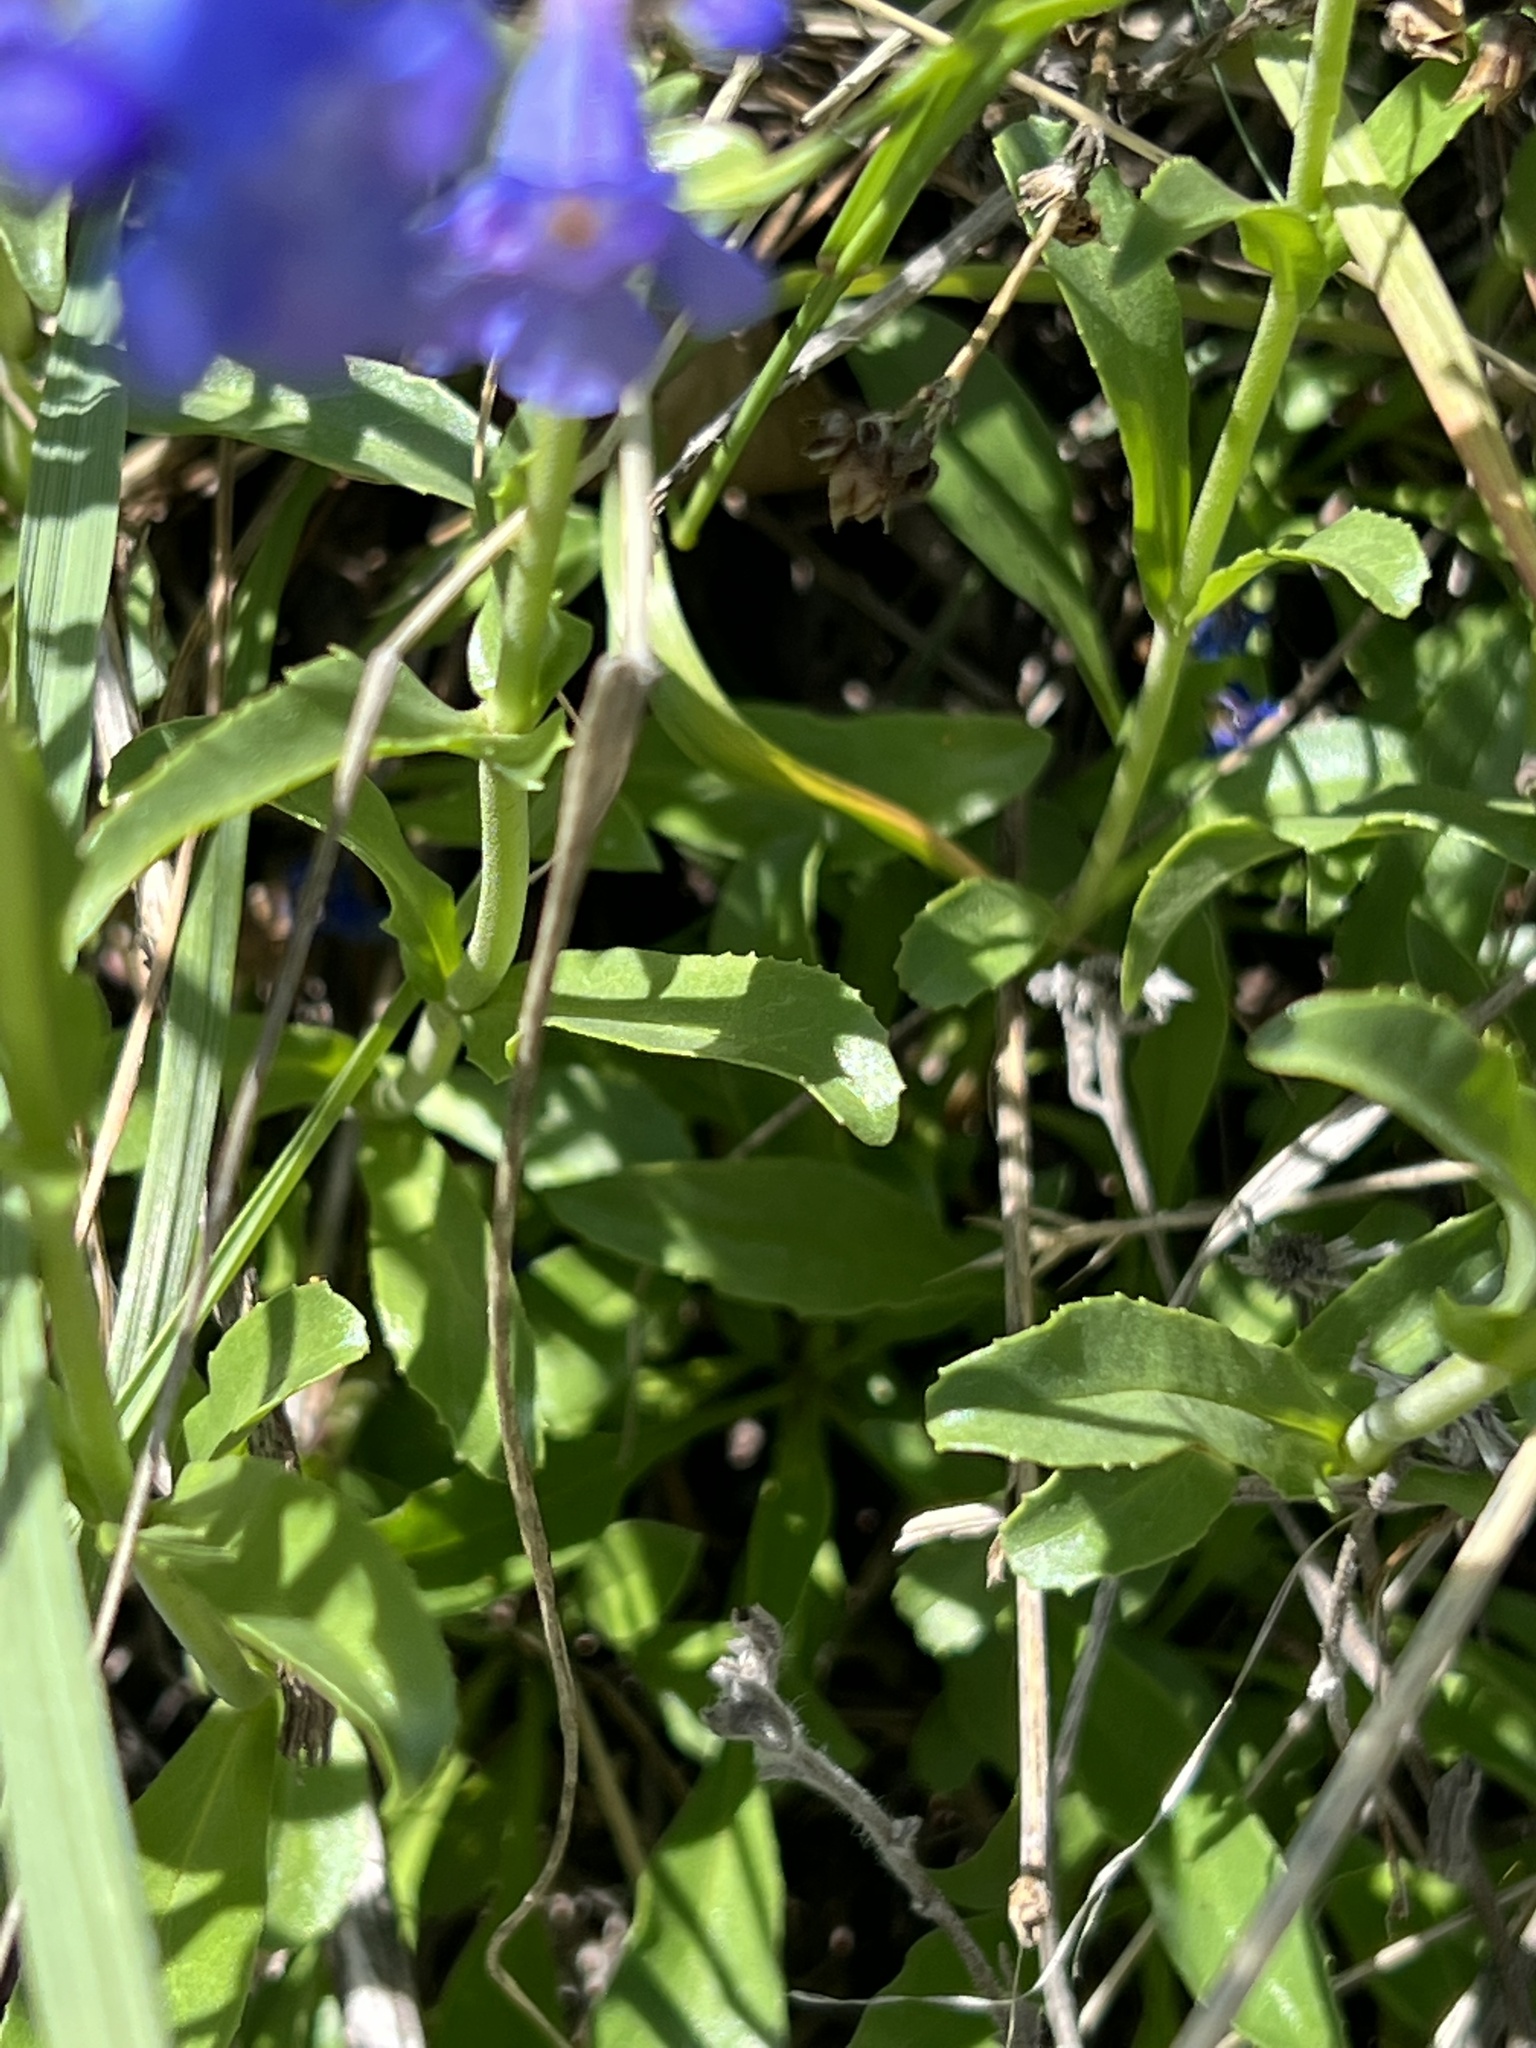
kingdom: Plantae
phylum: Tracheophyta
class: Magnoliopsida
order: Lamiales
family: Plantaginaceae
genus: Penstemon
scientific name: Penstemon virens
